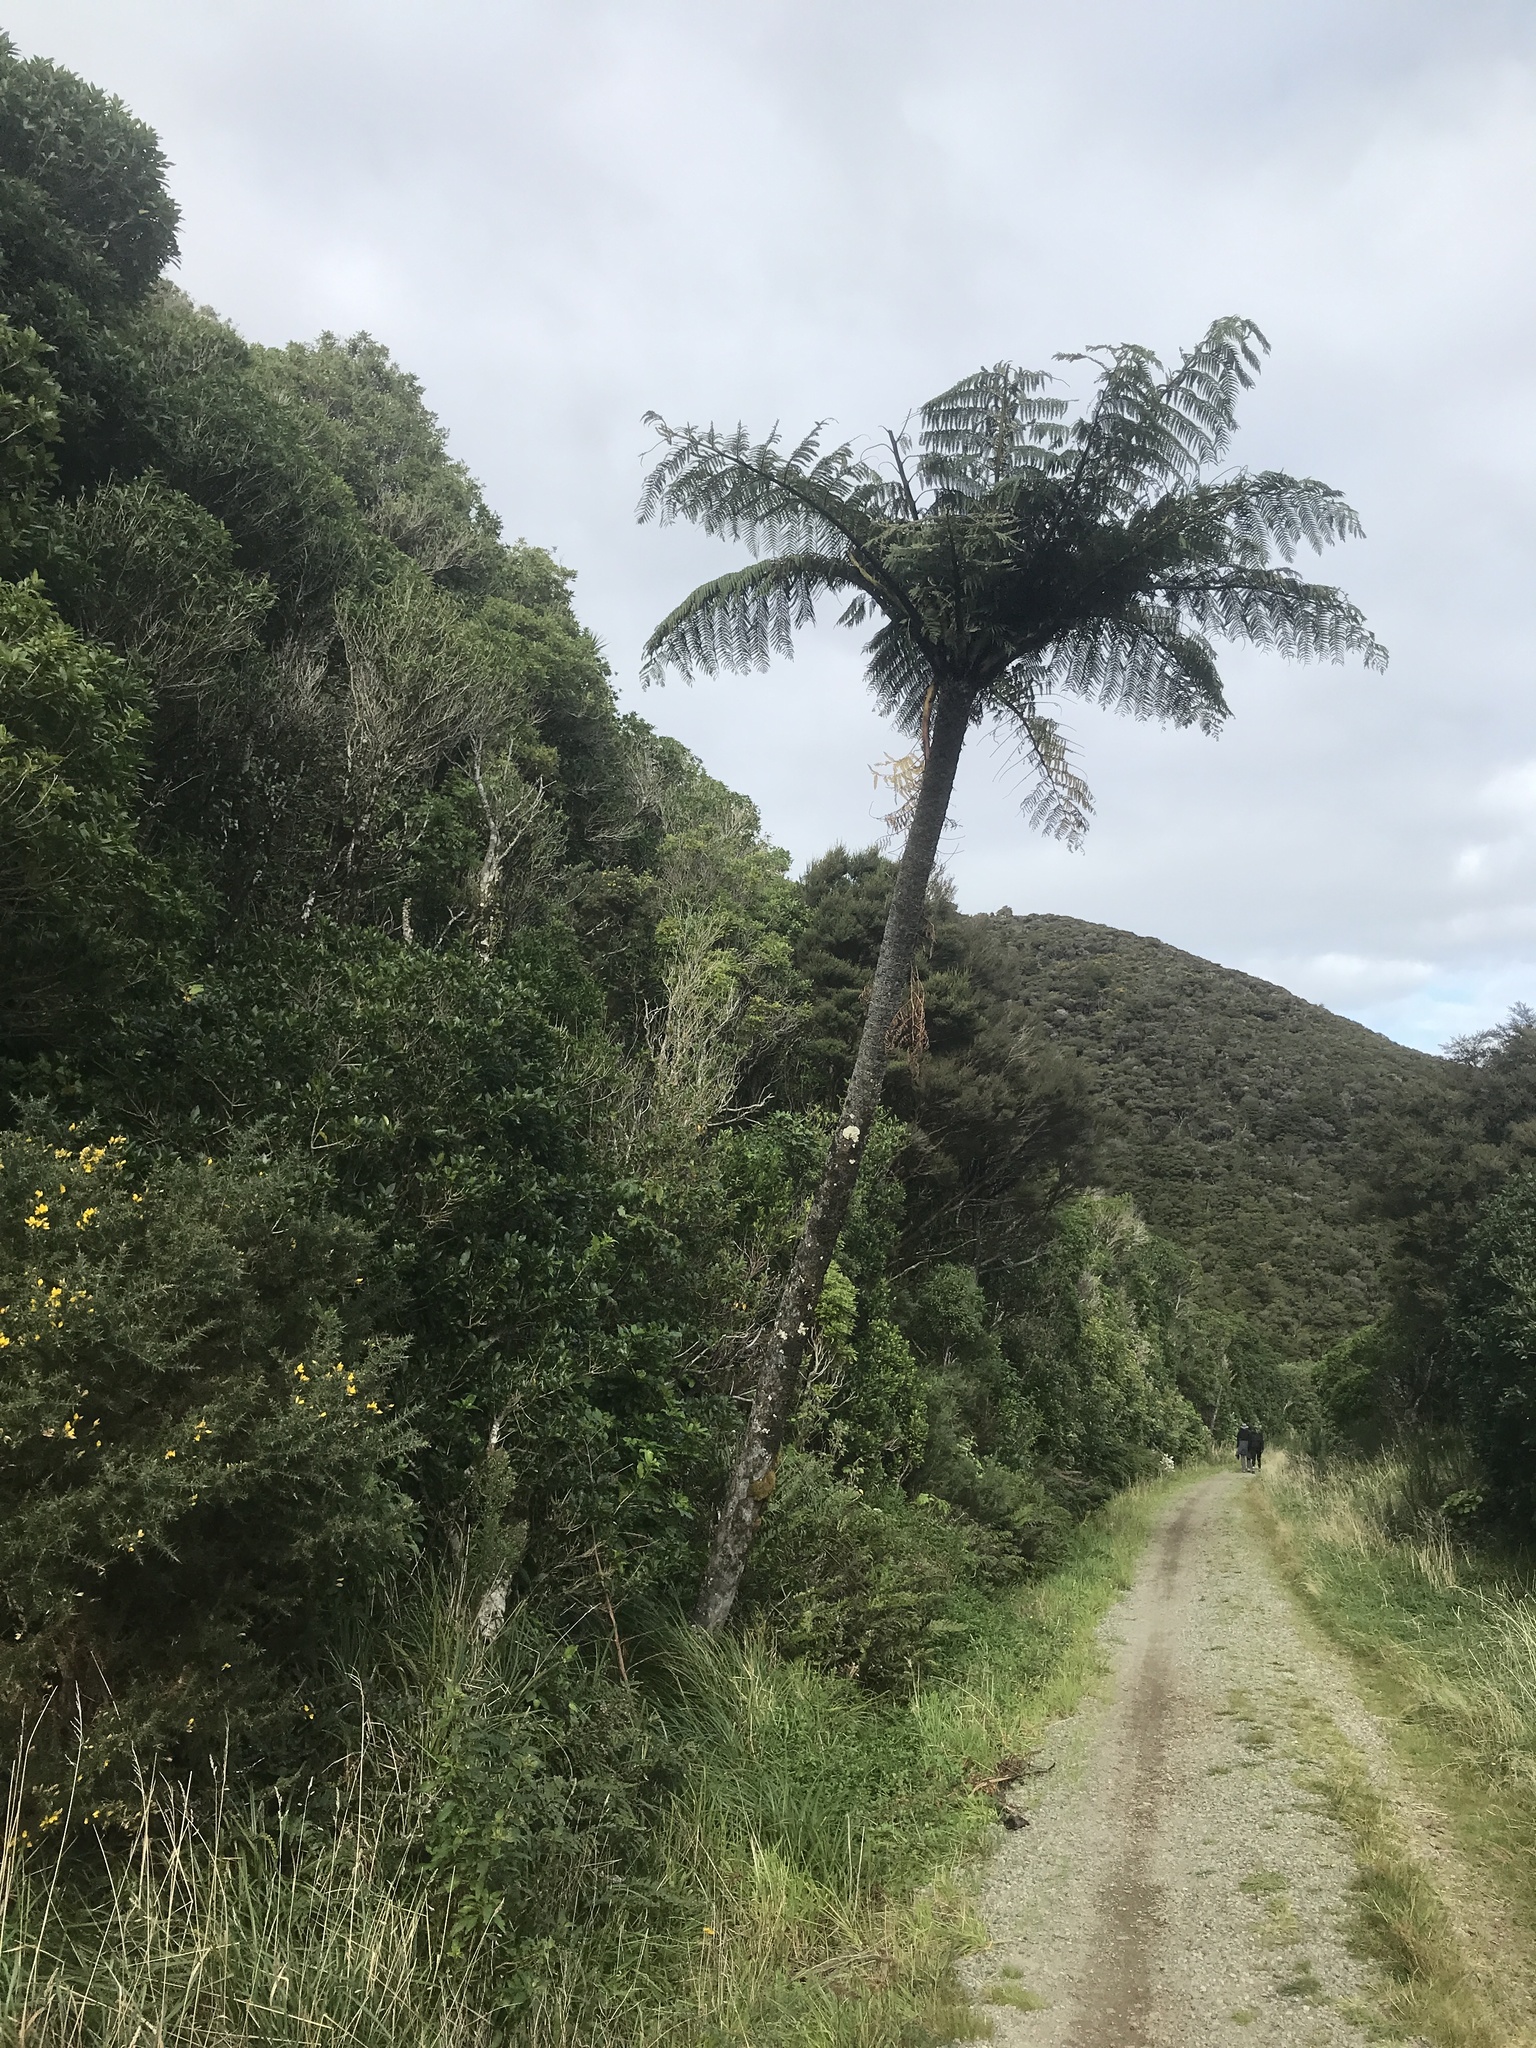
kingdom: Plantae
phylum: Tracheophyta
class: Polypodiopsida
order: Cyatheales
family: Cyatheaceae
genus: Sphaeropteris
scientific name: Sphaeropteris medullaris
